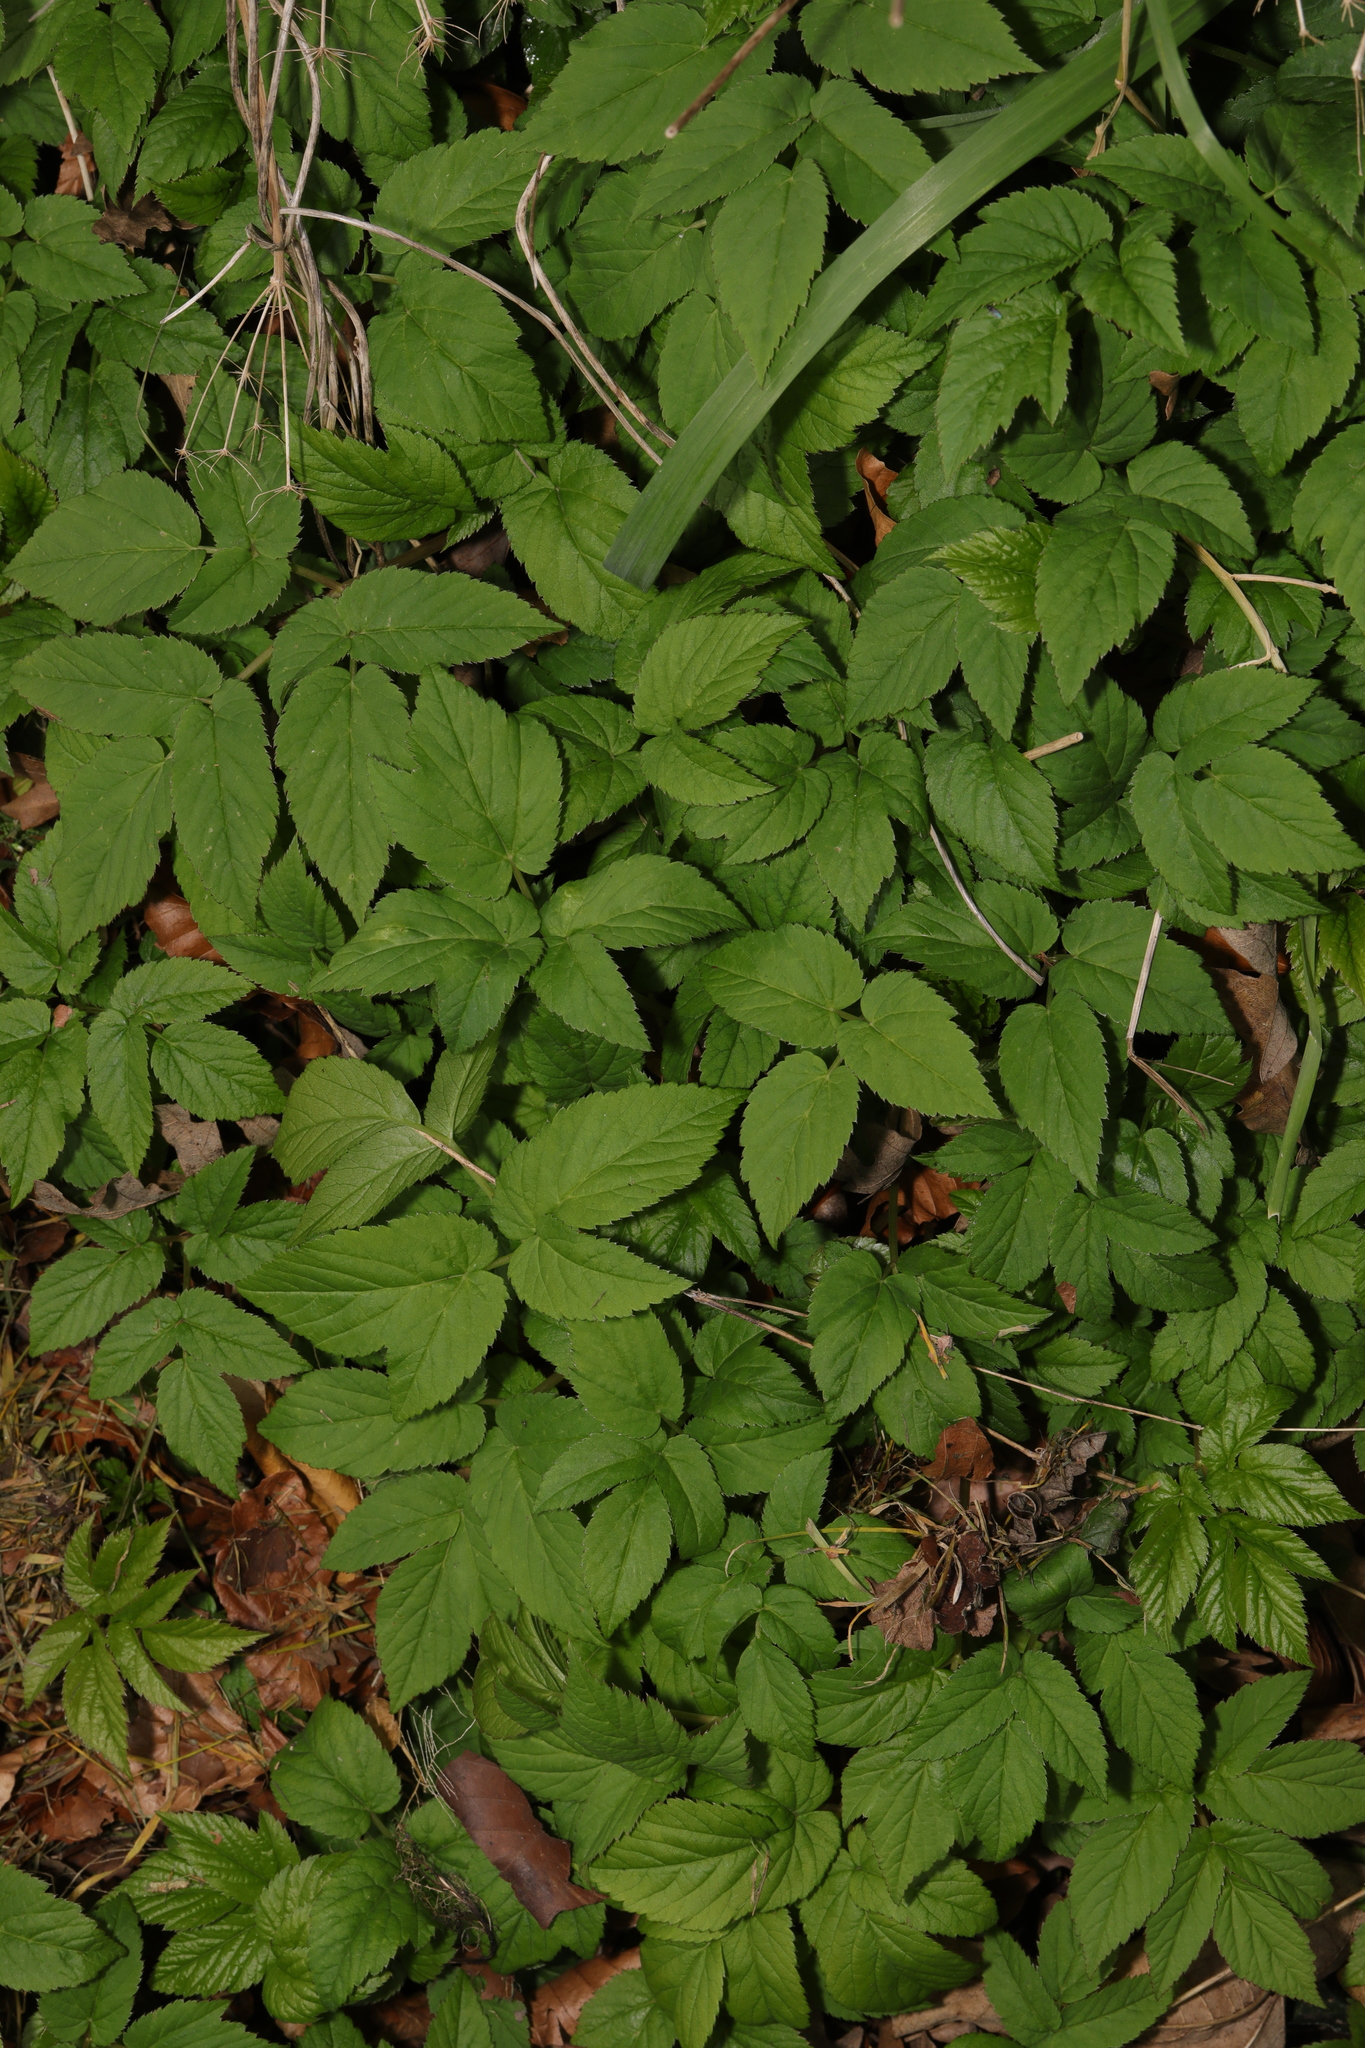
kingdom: Plantae
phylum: Tracheophyta
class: Magnoliopsida
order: Apiales
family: Apiaceae
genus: Aegopodium
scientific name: Aegopodium podagraria
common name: Ground-elder
